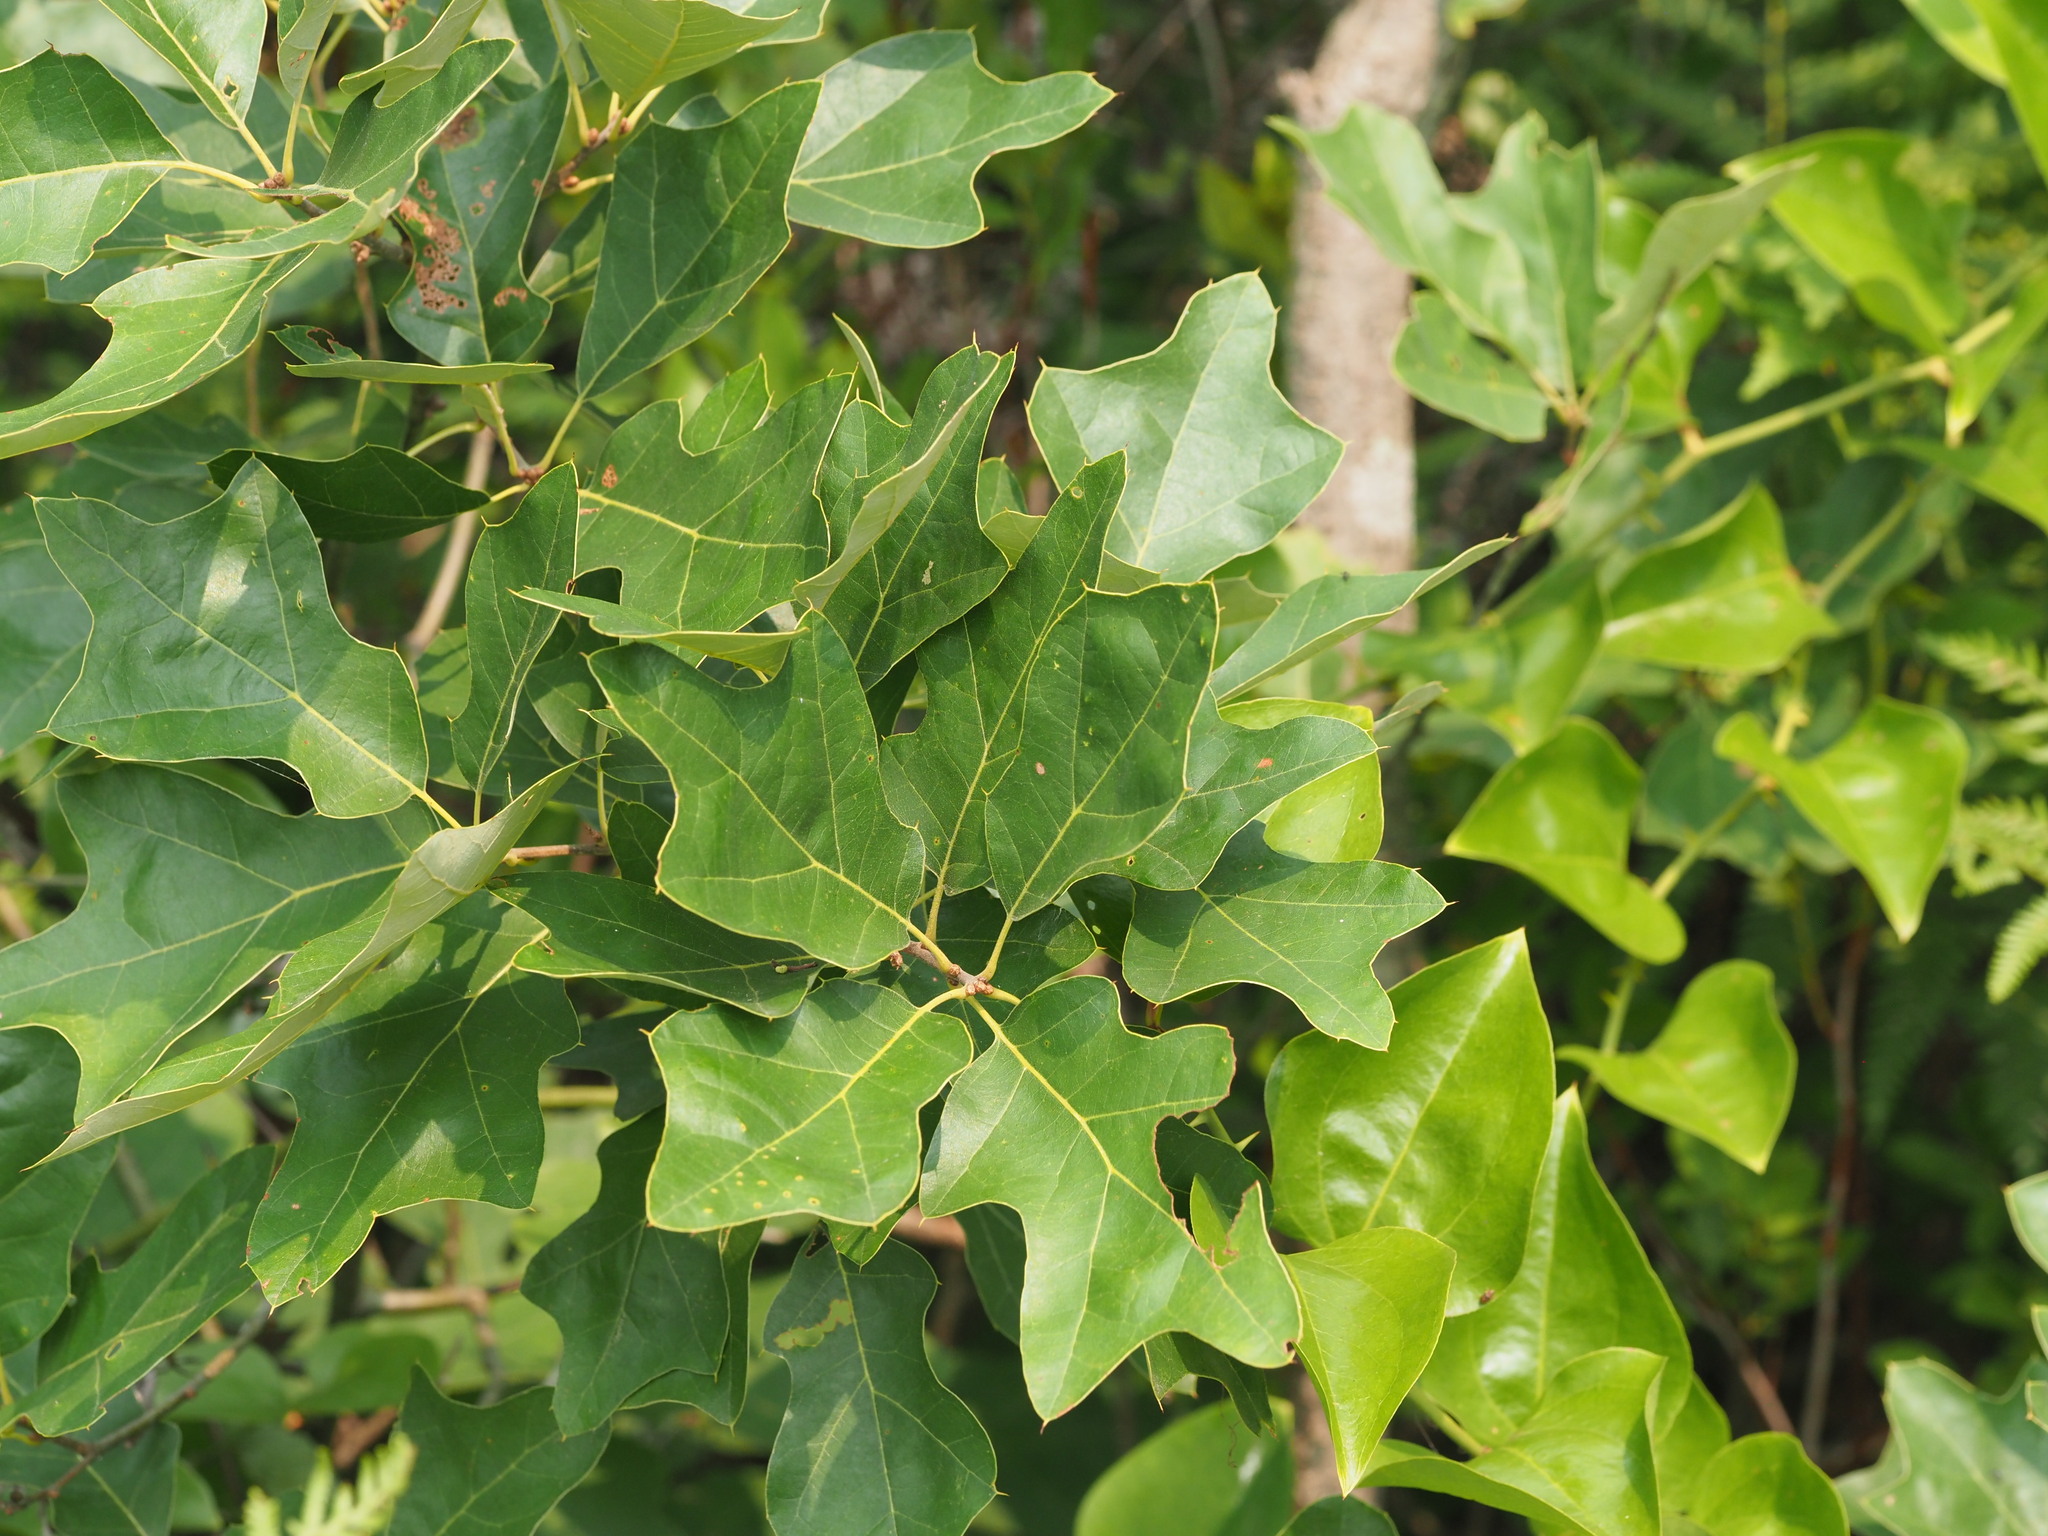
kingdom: Plantae
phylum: Tracheophyta
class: Magnoliopsida
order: Fagales
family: Fagaceae
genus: Quercus
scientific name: Quercus ilicifolia
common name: Bear oak
